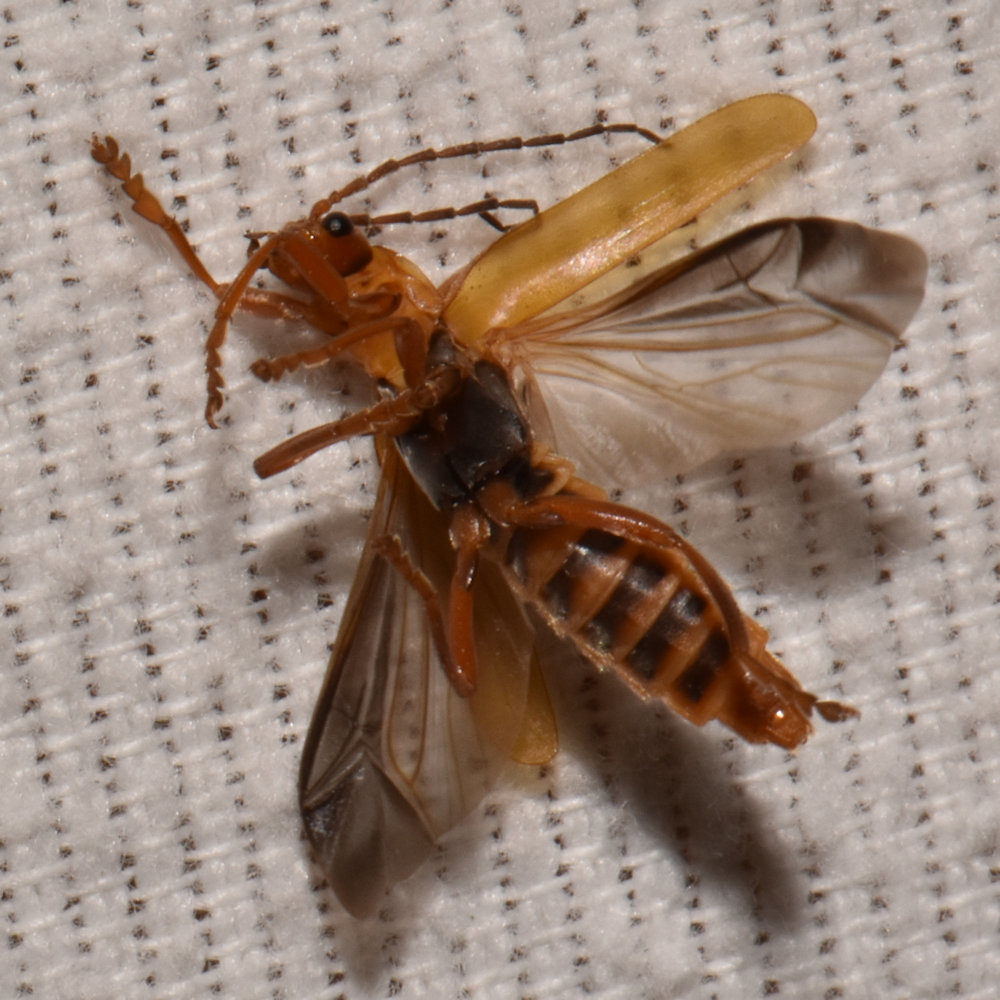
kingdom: Animalia
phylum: Arthropoda
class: Insecta
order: Coleoptera
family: Cantharidae
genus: Cantharis
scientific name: Cantharis rufa
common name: Red-spotted soldier beetle
